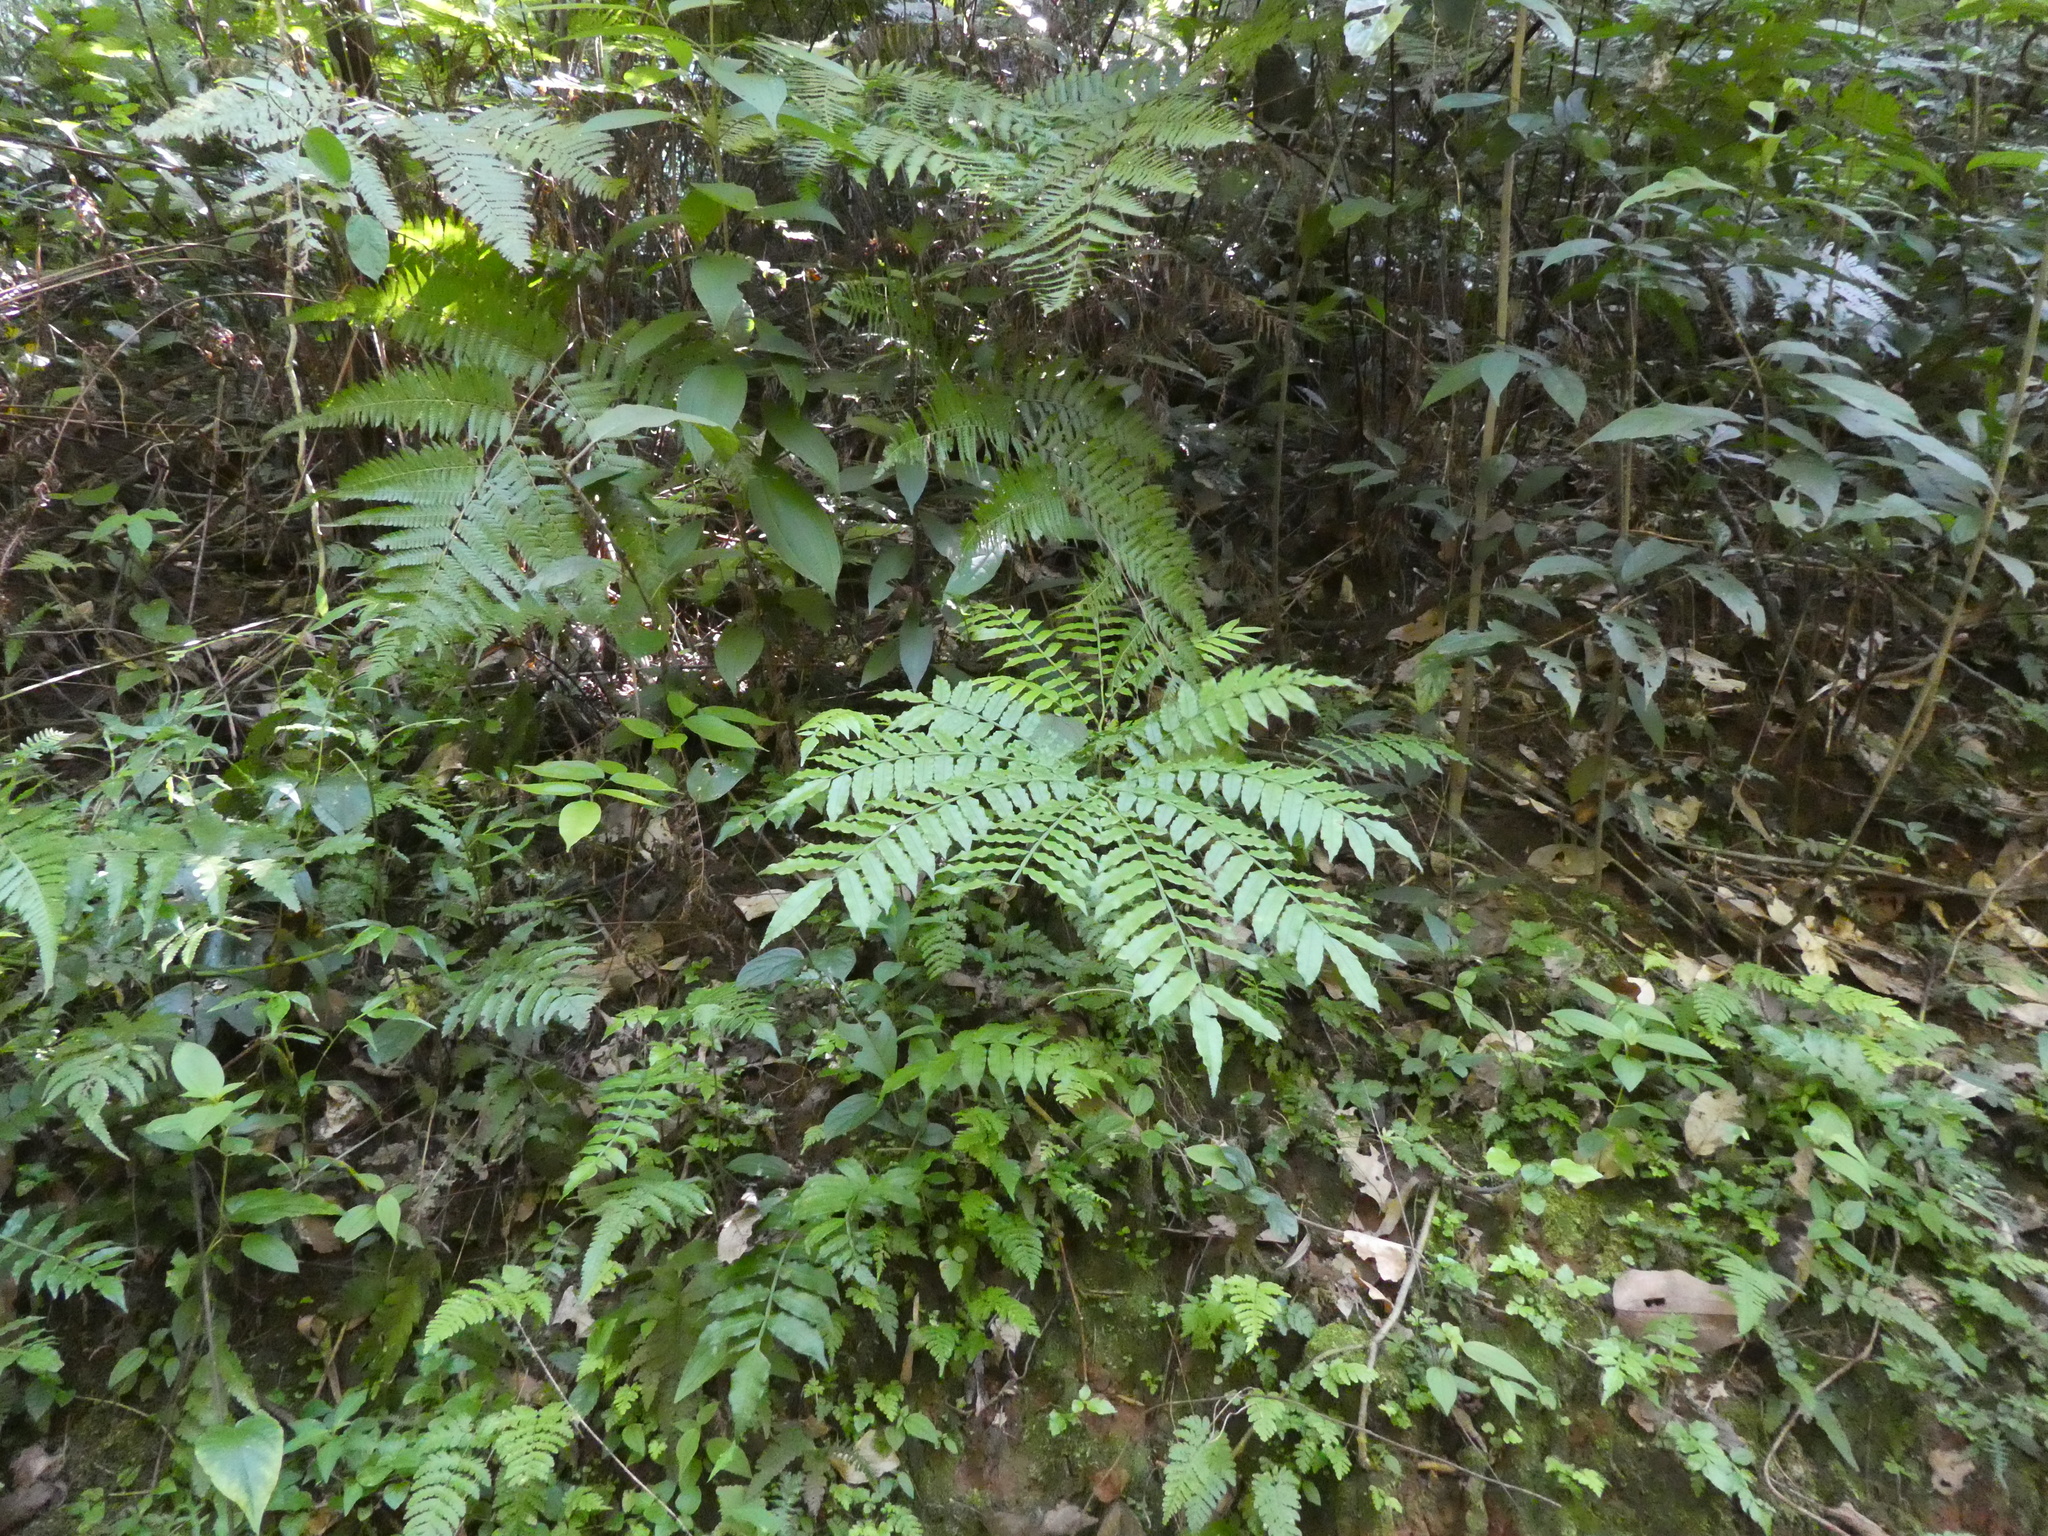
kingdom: Plantae
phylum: Tracheophyta
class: Polypodiopsida
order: Marattiales
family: Marattiaceae
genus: Angiopteris
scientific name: Angiopteris fokiensis
